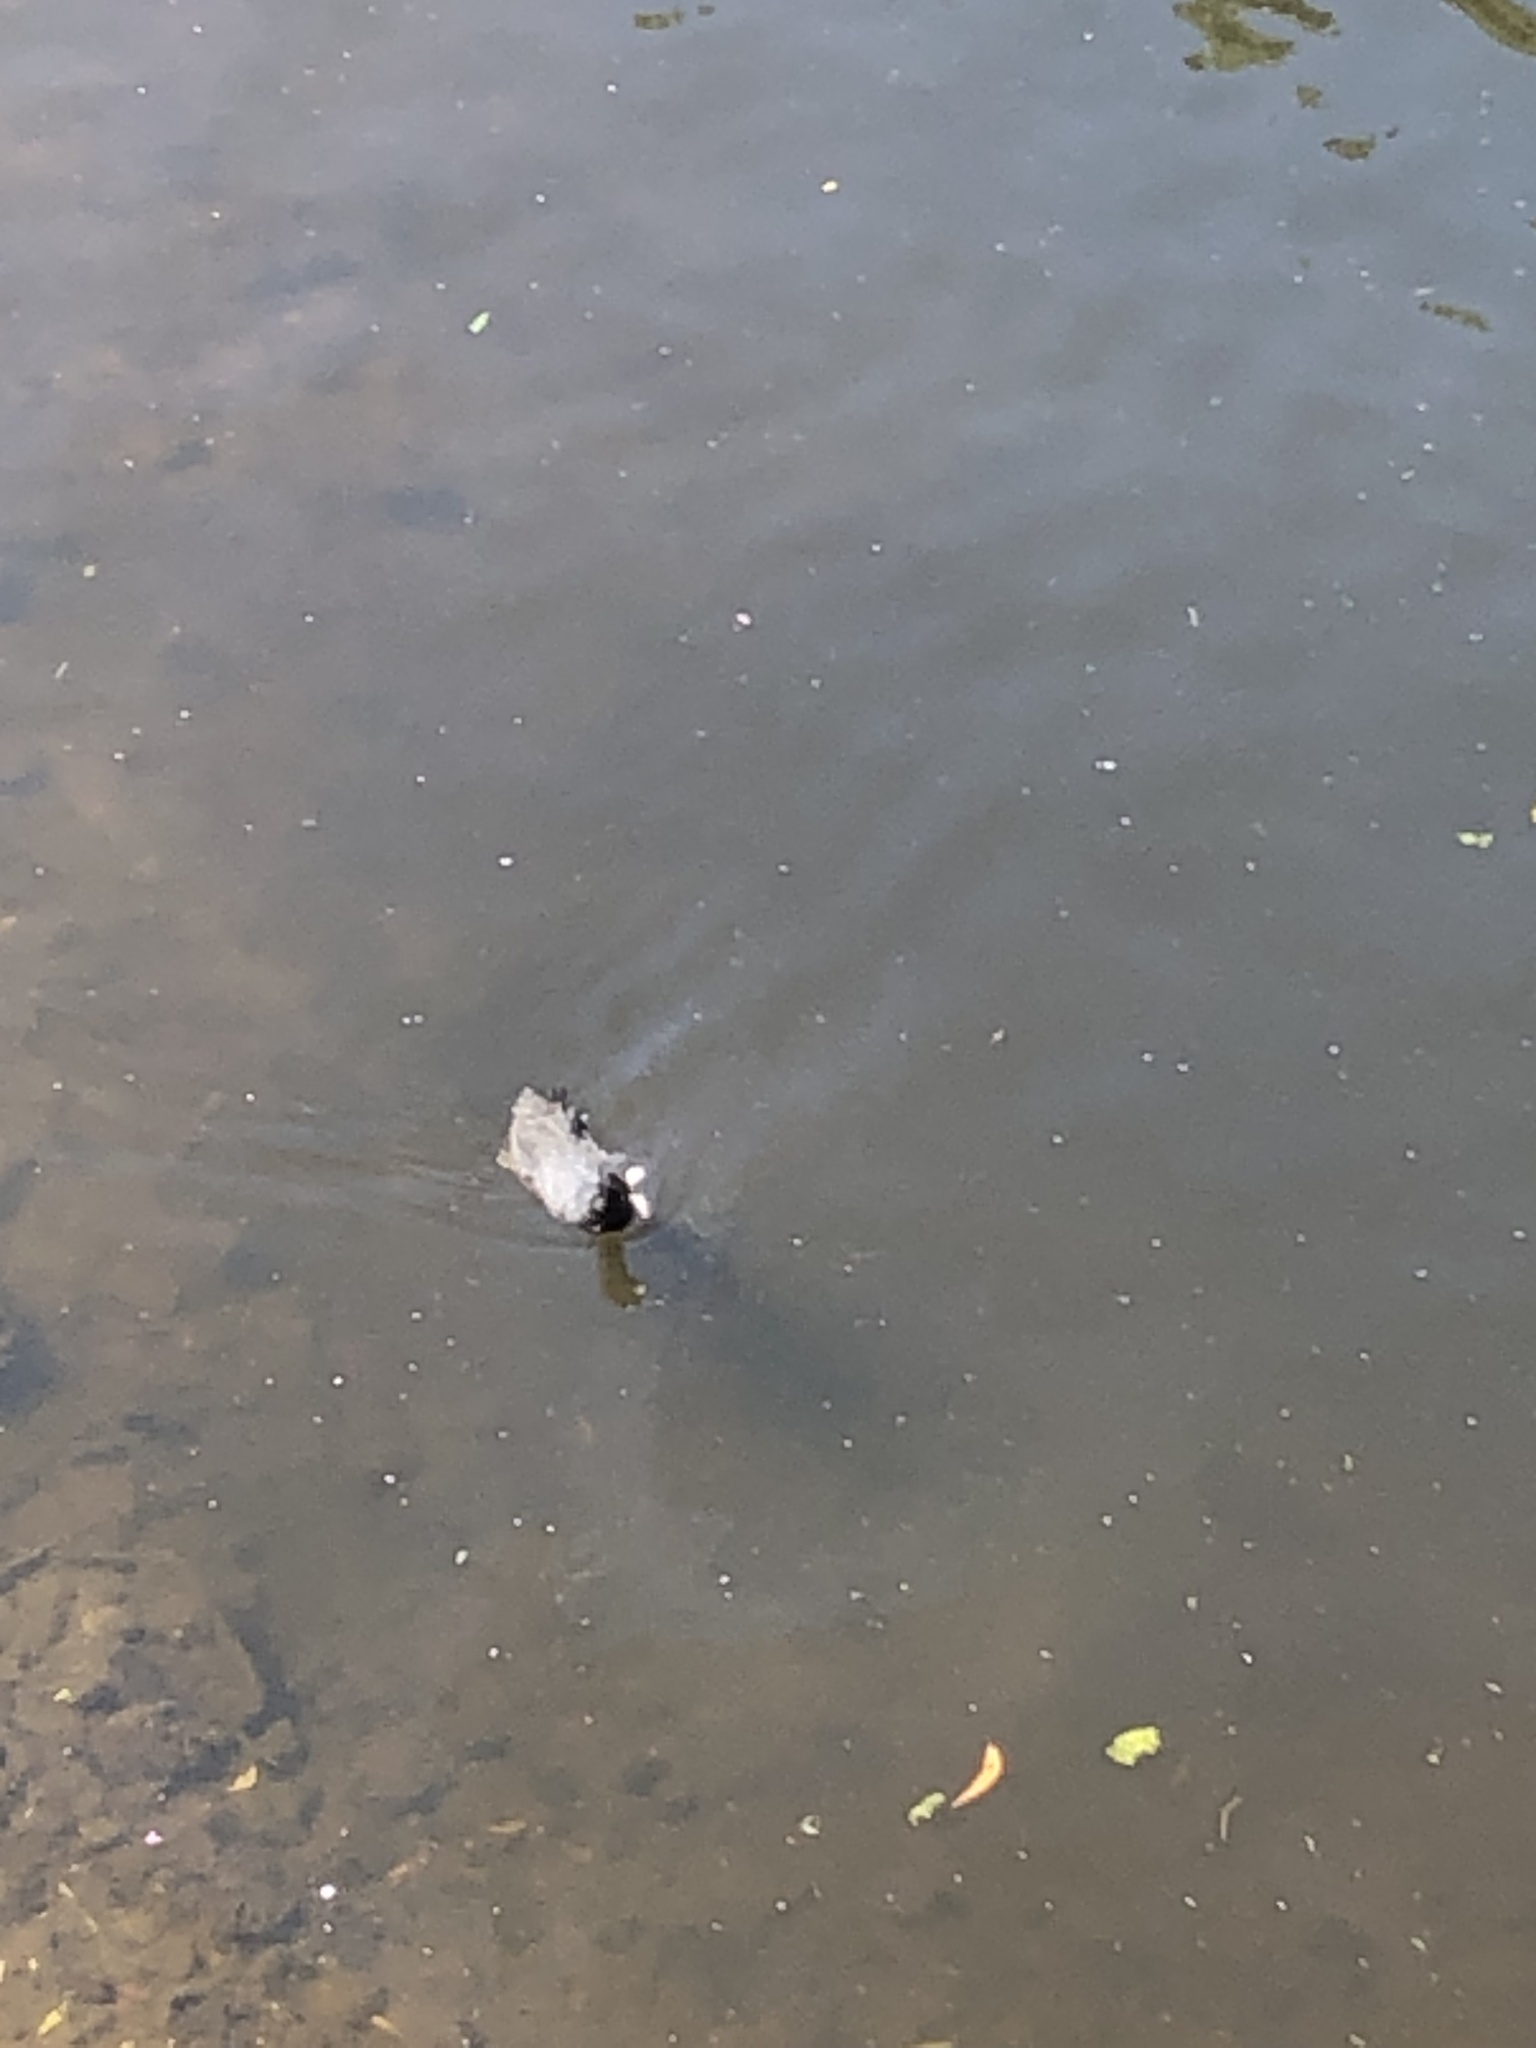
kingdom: Animalia
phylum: Chordata
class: Aves
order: Gruiformes
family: Rallidae
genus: Fulica
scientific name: Fulica atra
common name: Eurasian coot
